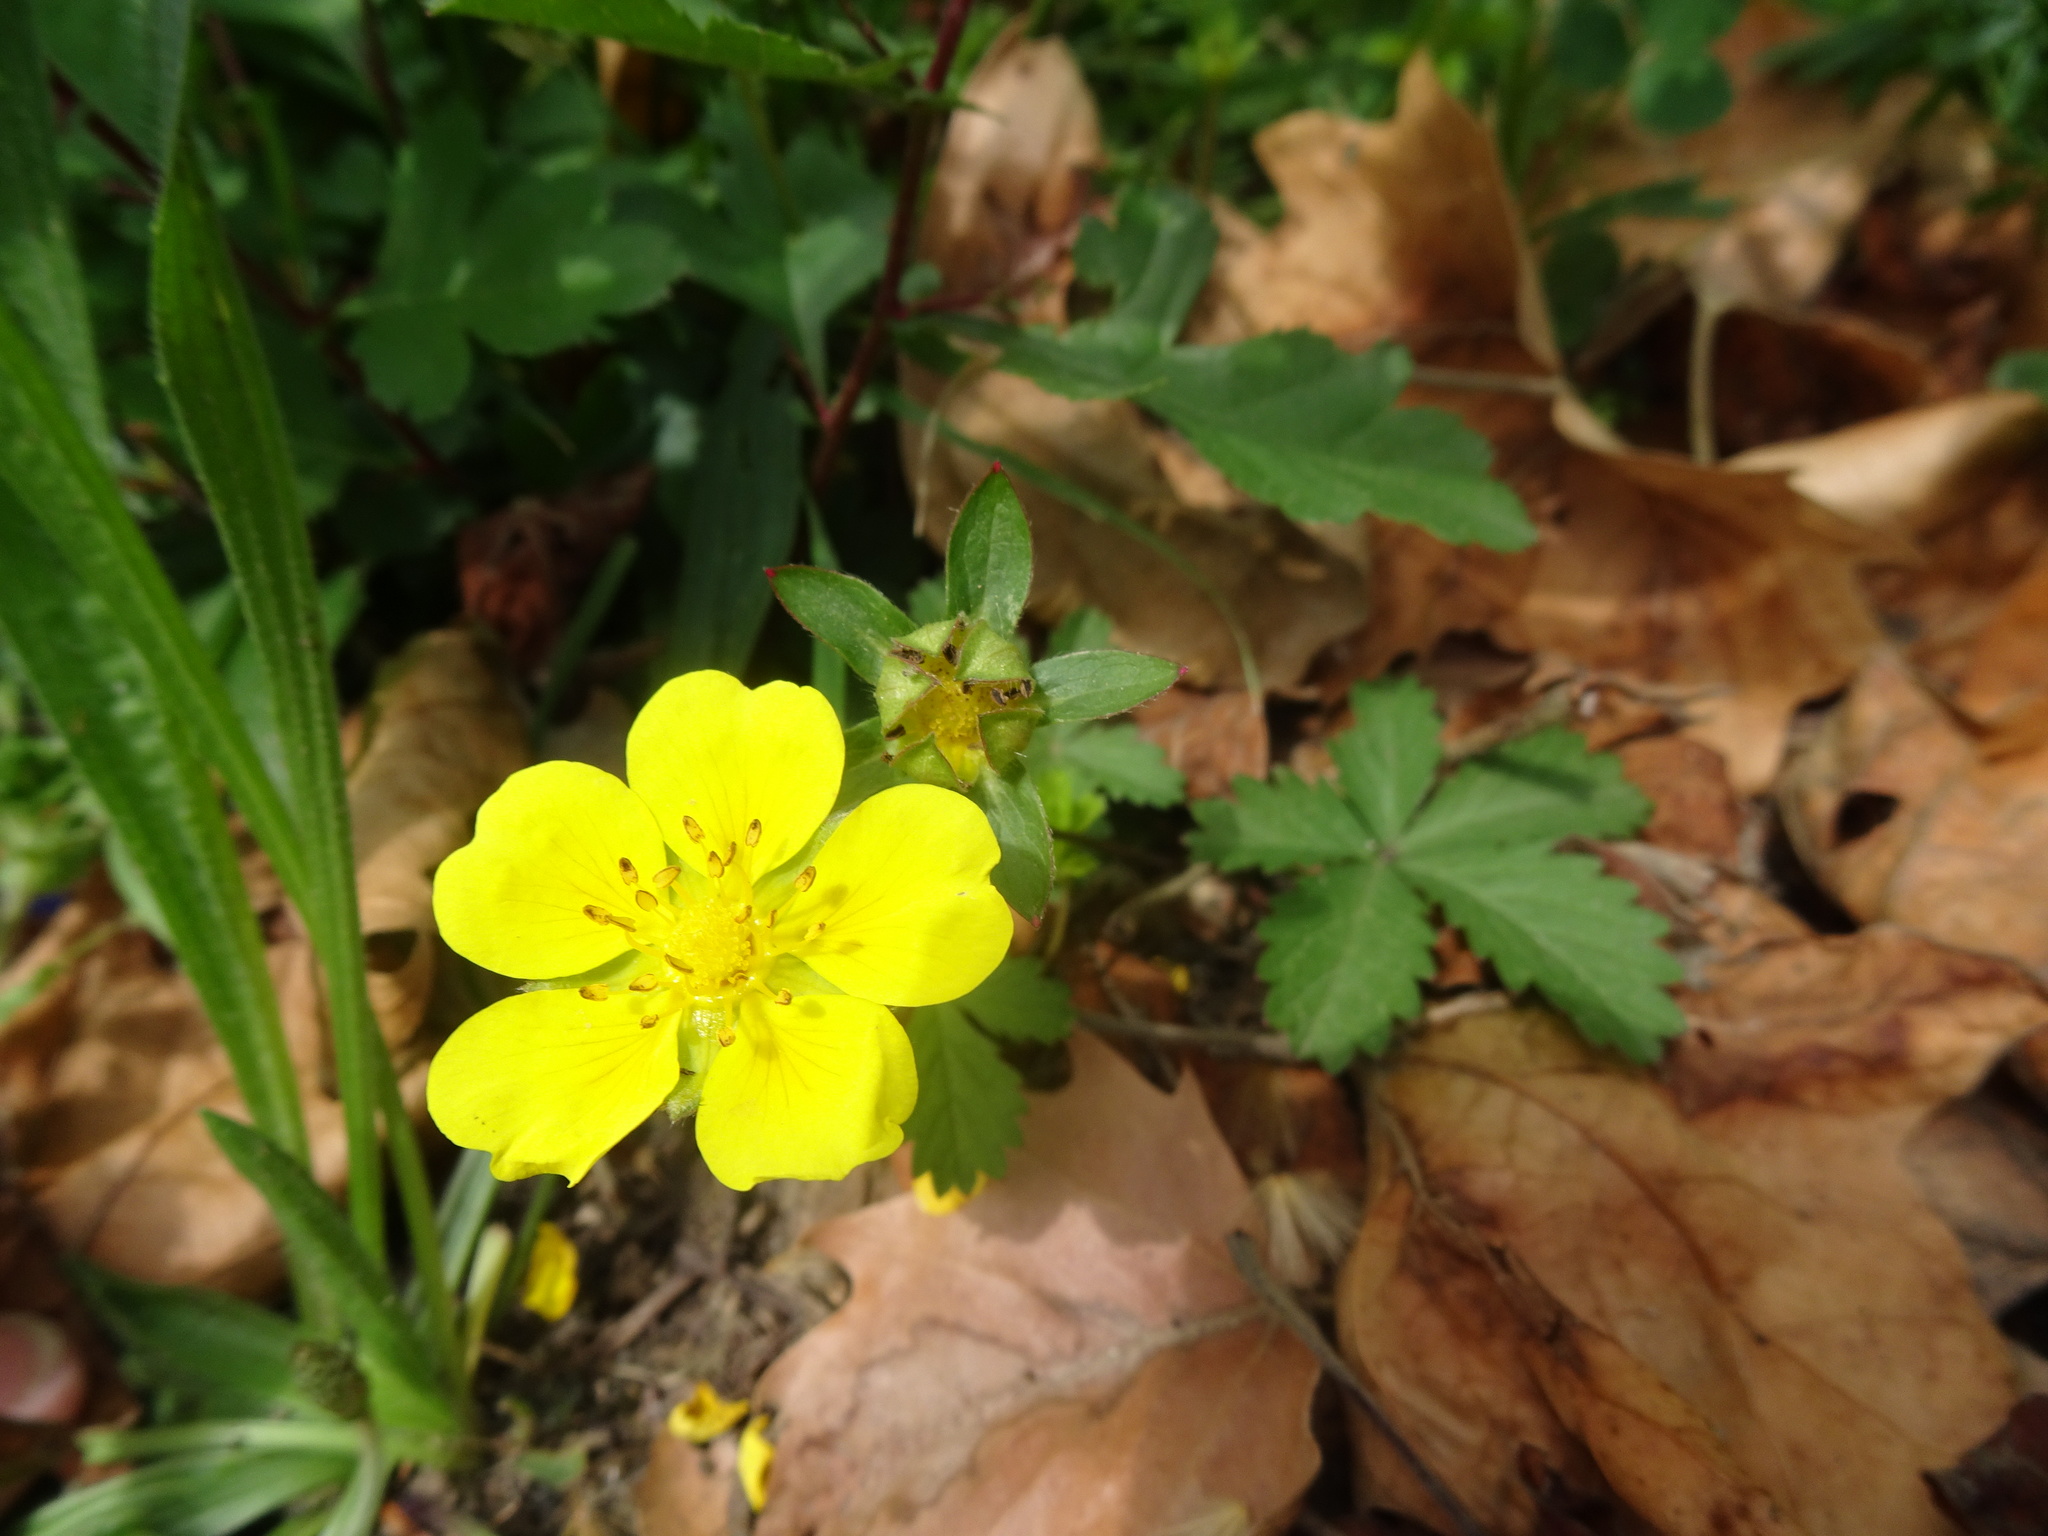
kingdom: Plantae
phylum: Tracheophyta
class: Magnoliopsida
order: Rosales
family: Rosaceae
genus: Potentilla
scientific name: Potentilla reptans
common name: Creeping cinquefoil
